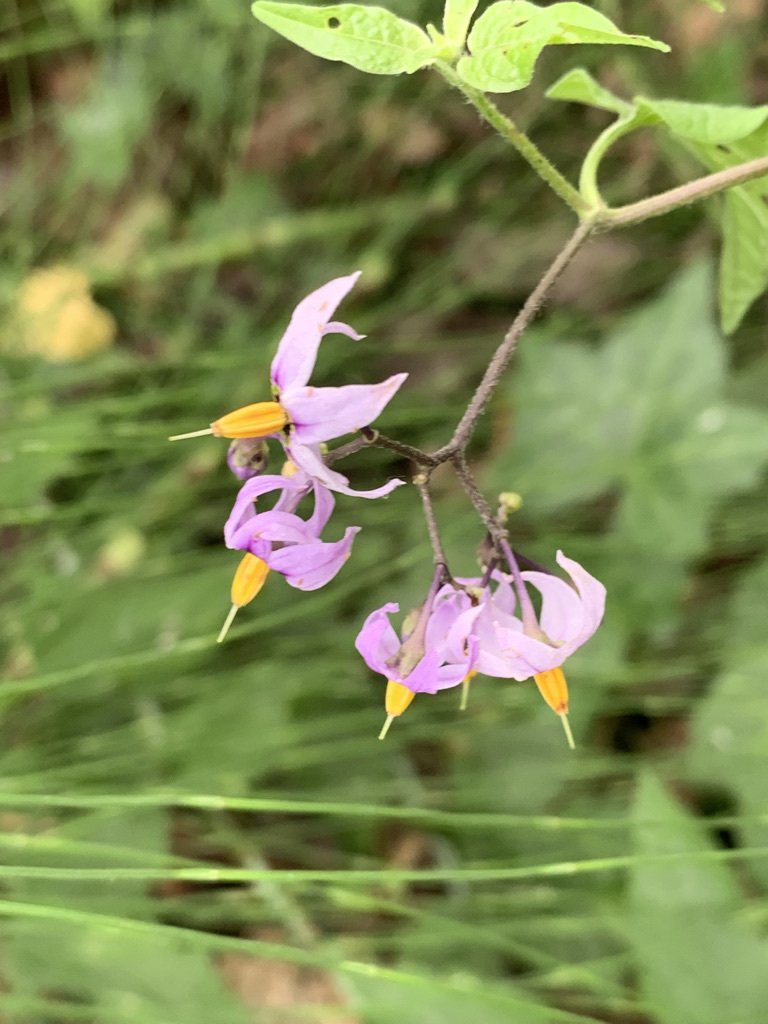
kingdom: Plantae
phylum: Tracheophyta
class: Magnoliopsida
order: Solanales
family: Solanaceae
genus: Solanum
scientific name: Solanum dulcamara
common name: Climbing nightshade
